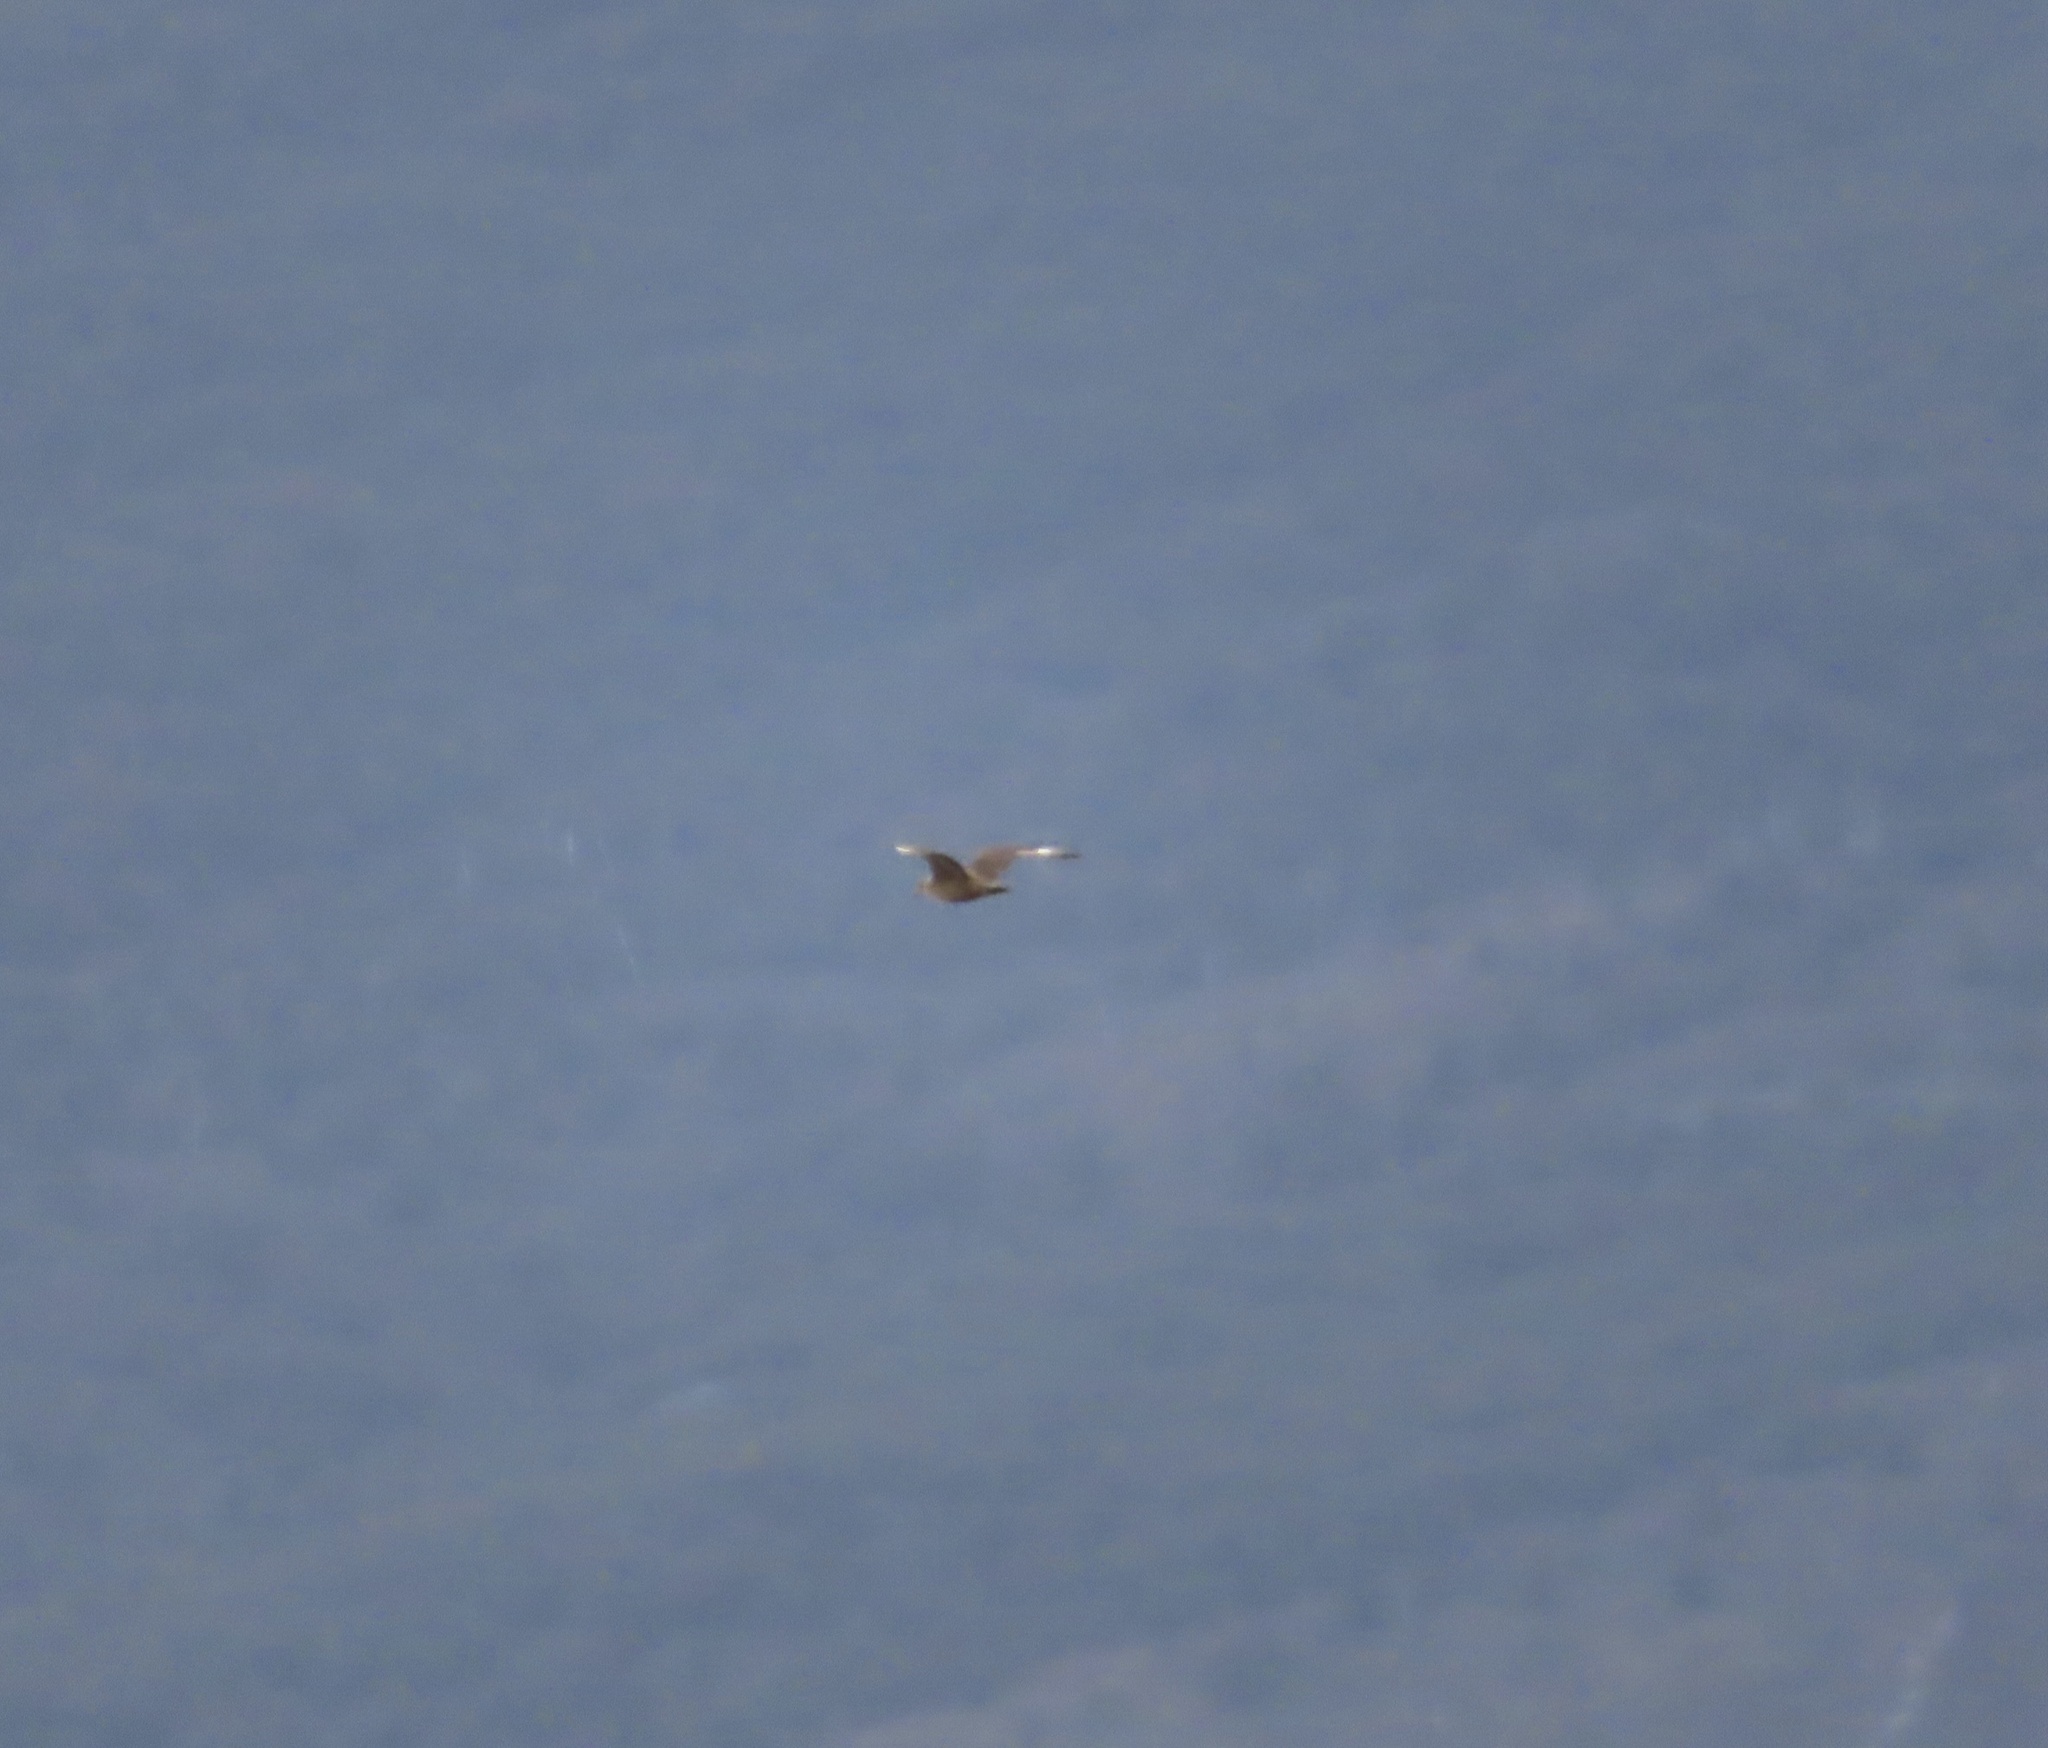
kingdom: Animalia
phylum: Chordata
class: Aves
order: Charadriiformes
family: Stercorariidae
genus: Stercorarius
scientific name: Stercorarius antarcticus
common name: Brown skua
